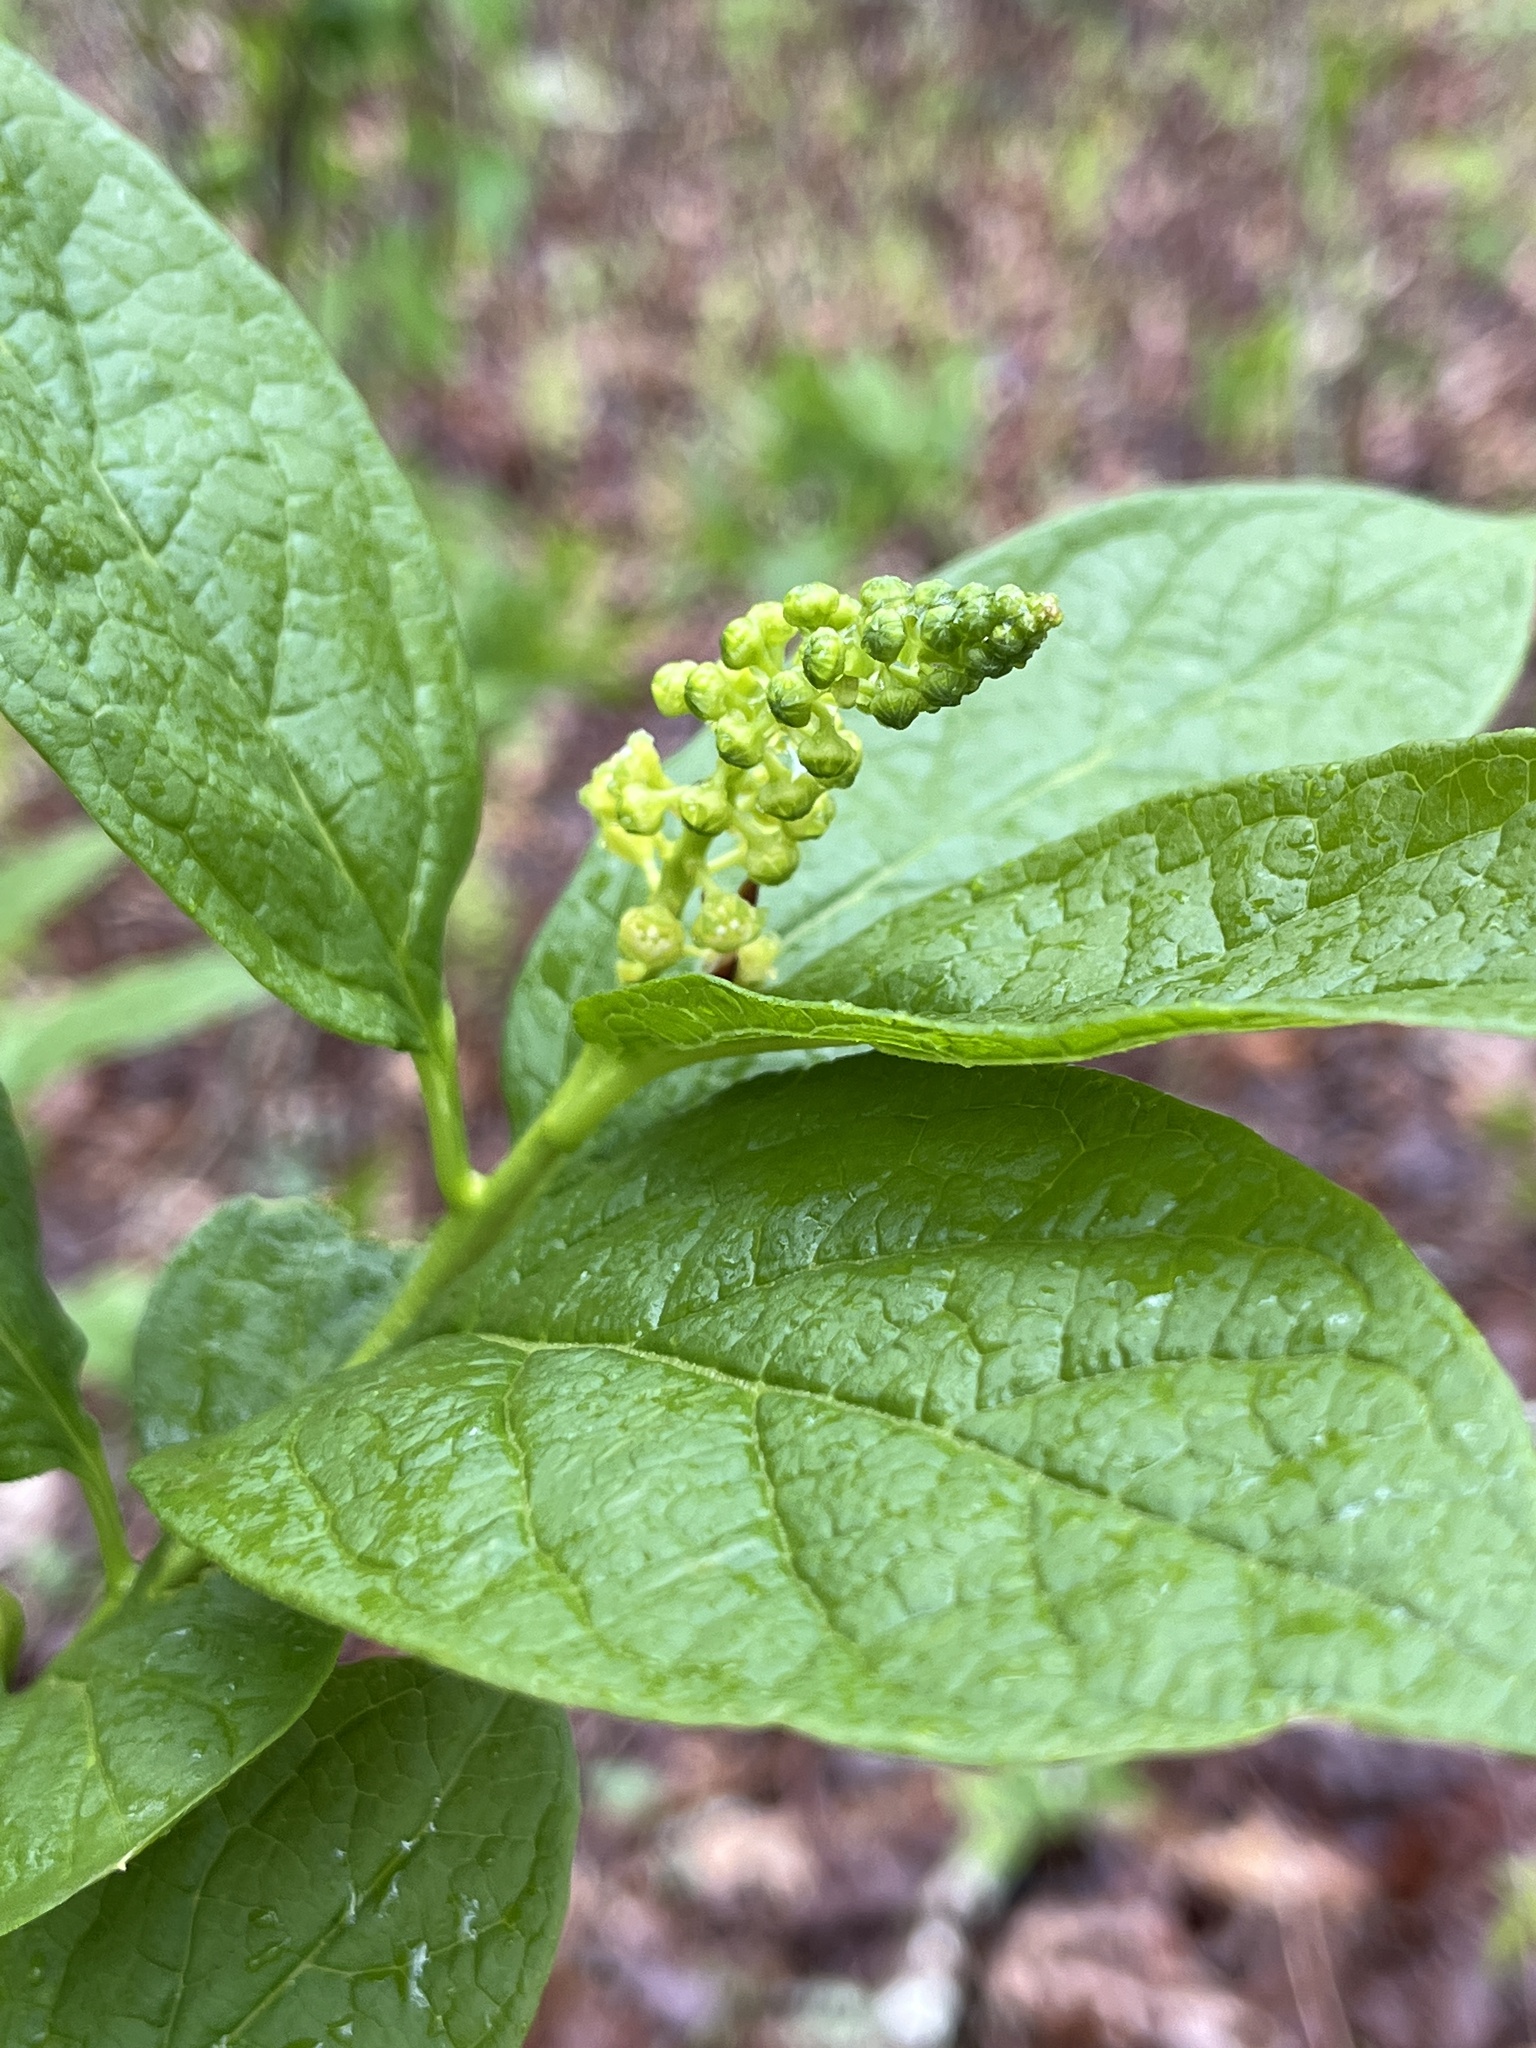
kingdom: Plantae
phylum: Tracheophyta
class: Magnoliopsida
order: Santalales
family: Cervantesiaceae
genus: Pyrularia
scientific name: Pyrularia pubera
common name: Oilnut
